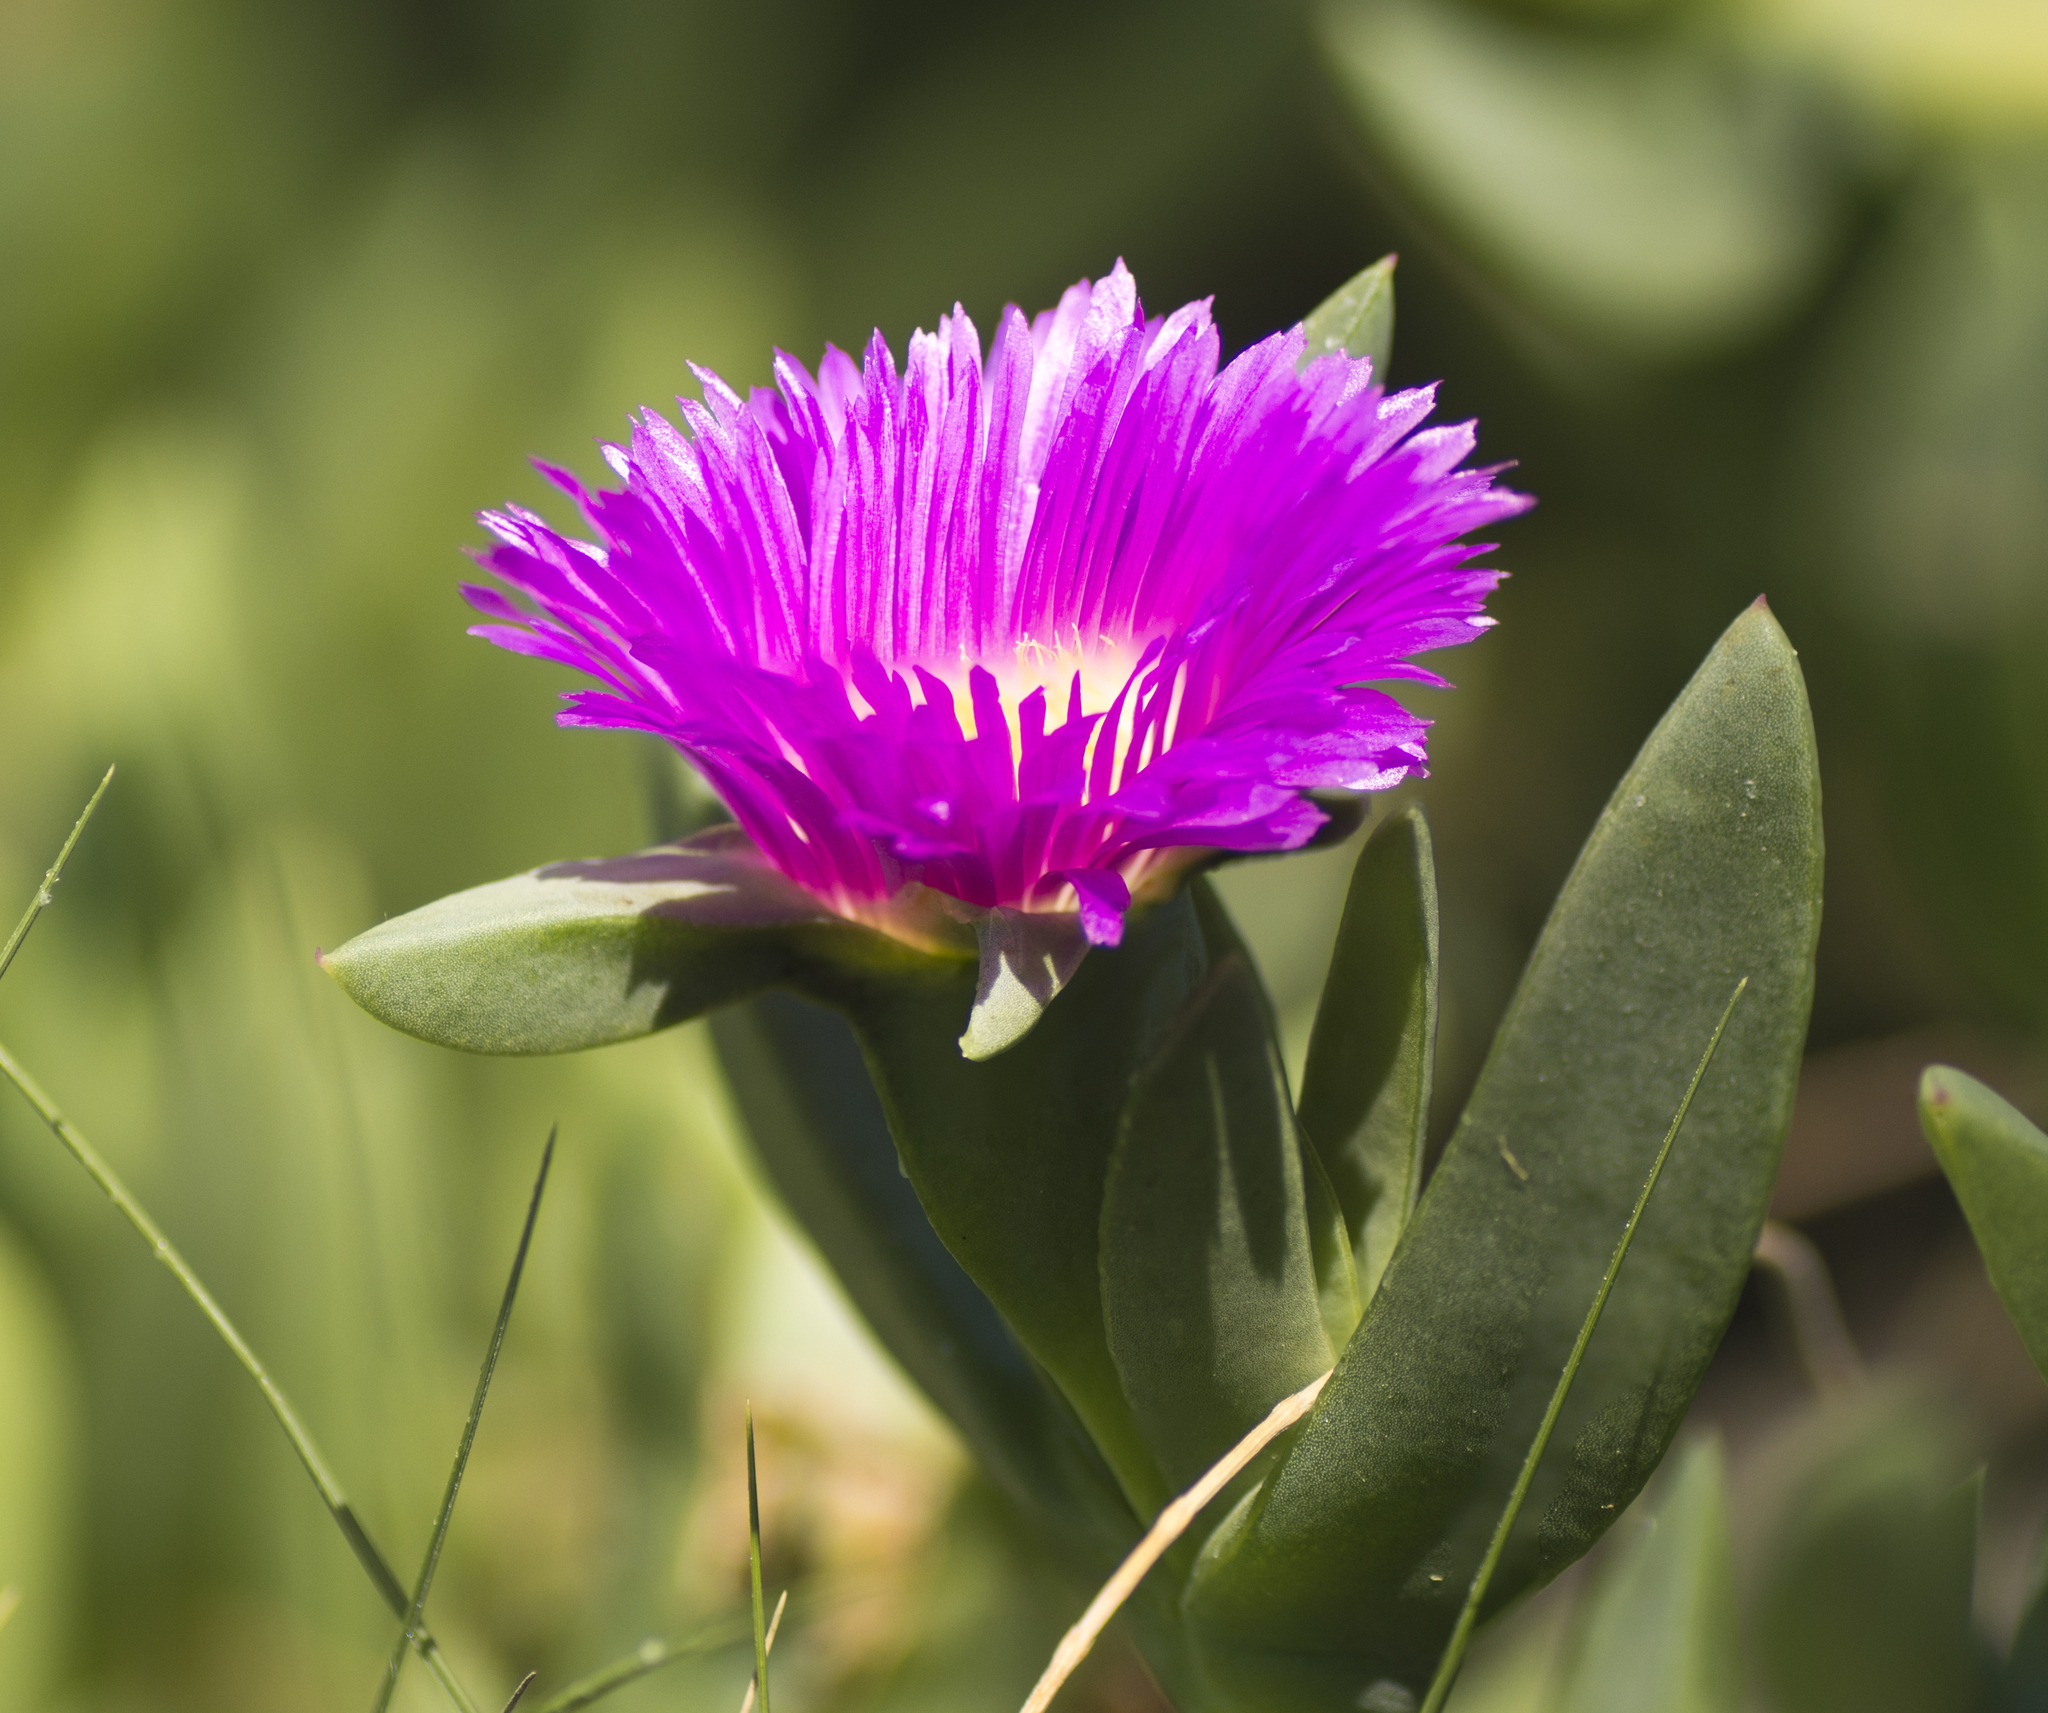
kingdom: Plantae
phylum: Tracheophyta
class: Magnoliopsida
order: Caryophyllales
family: Aizoaceae
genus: Carpobrotus
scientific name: Carpobrotus glaucescens
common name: Angular sea-fig
